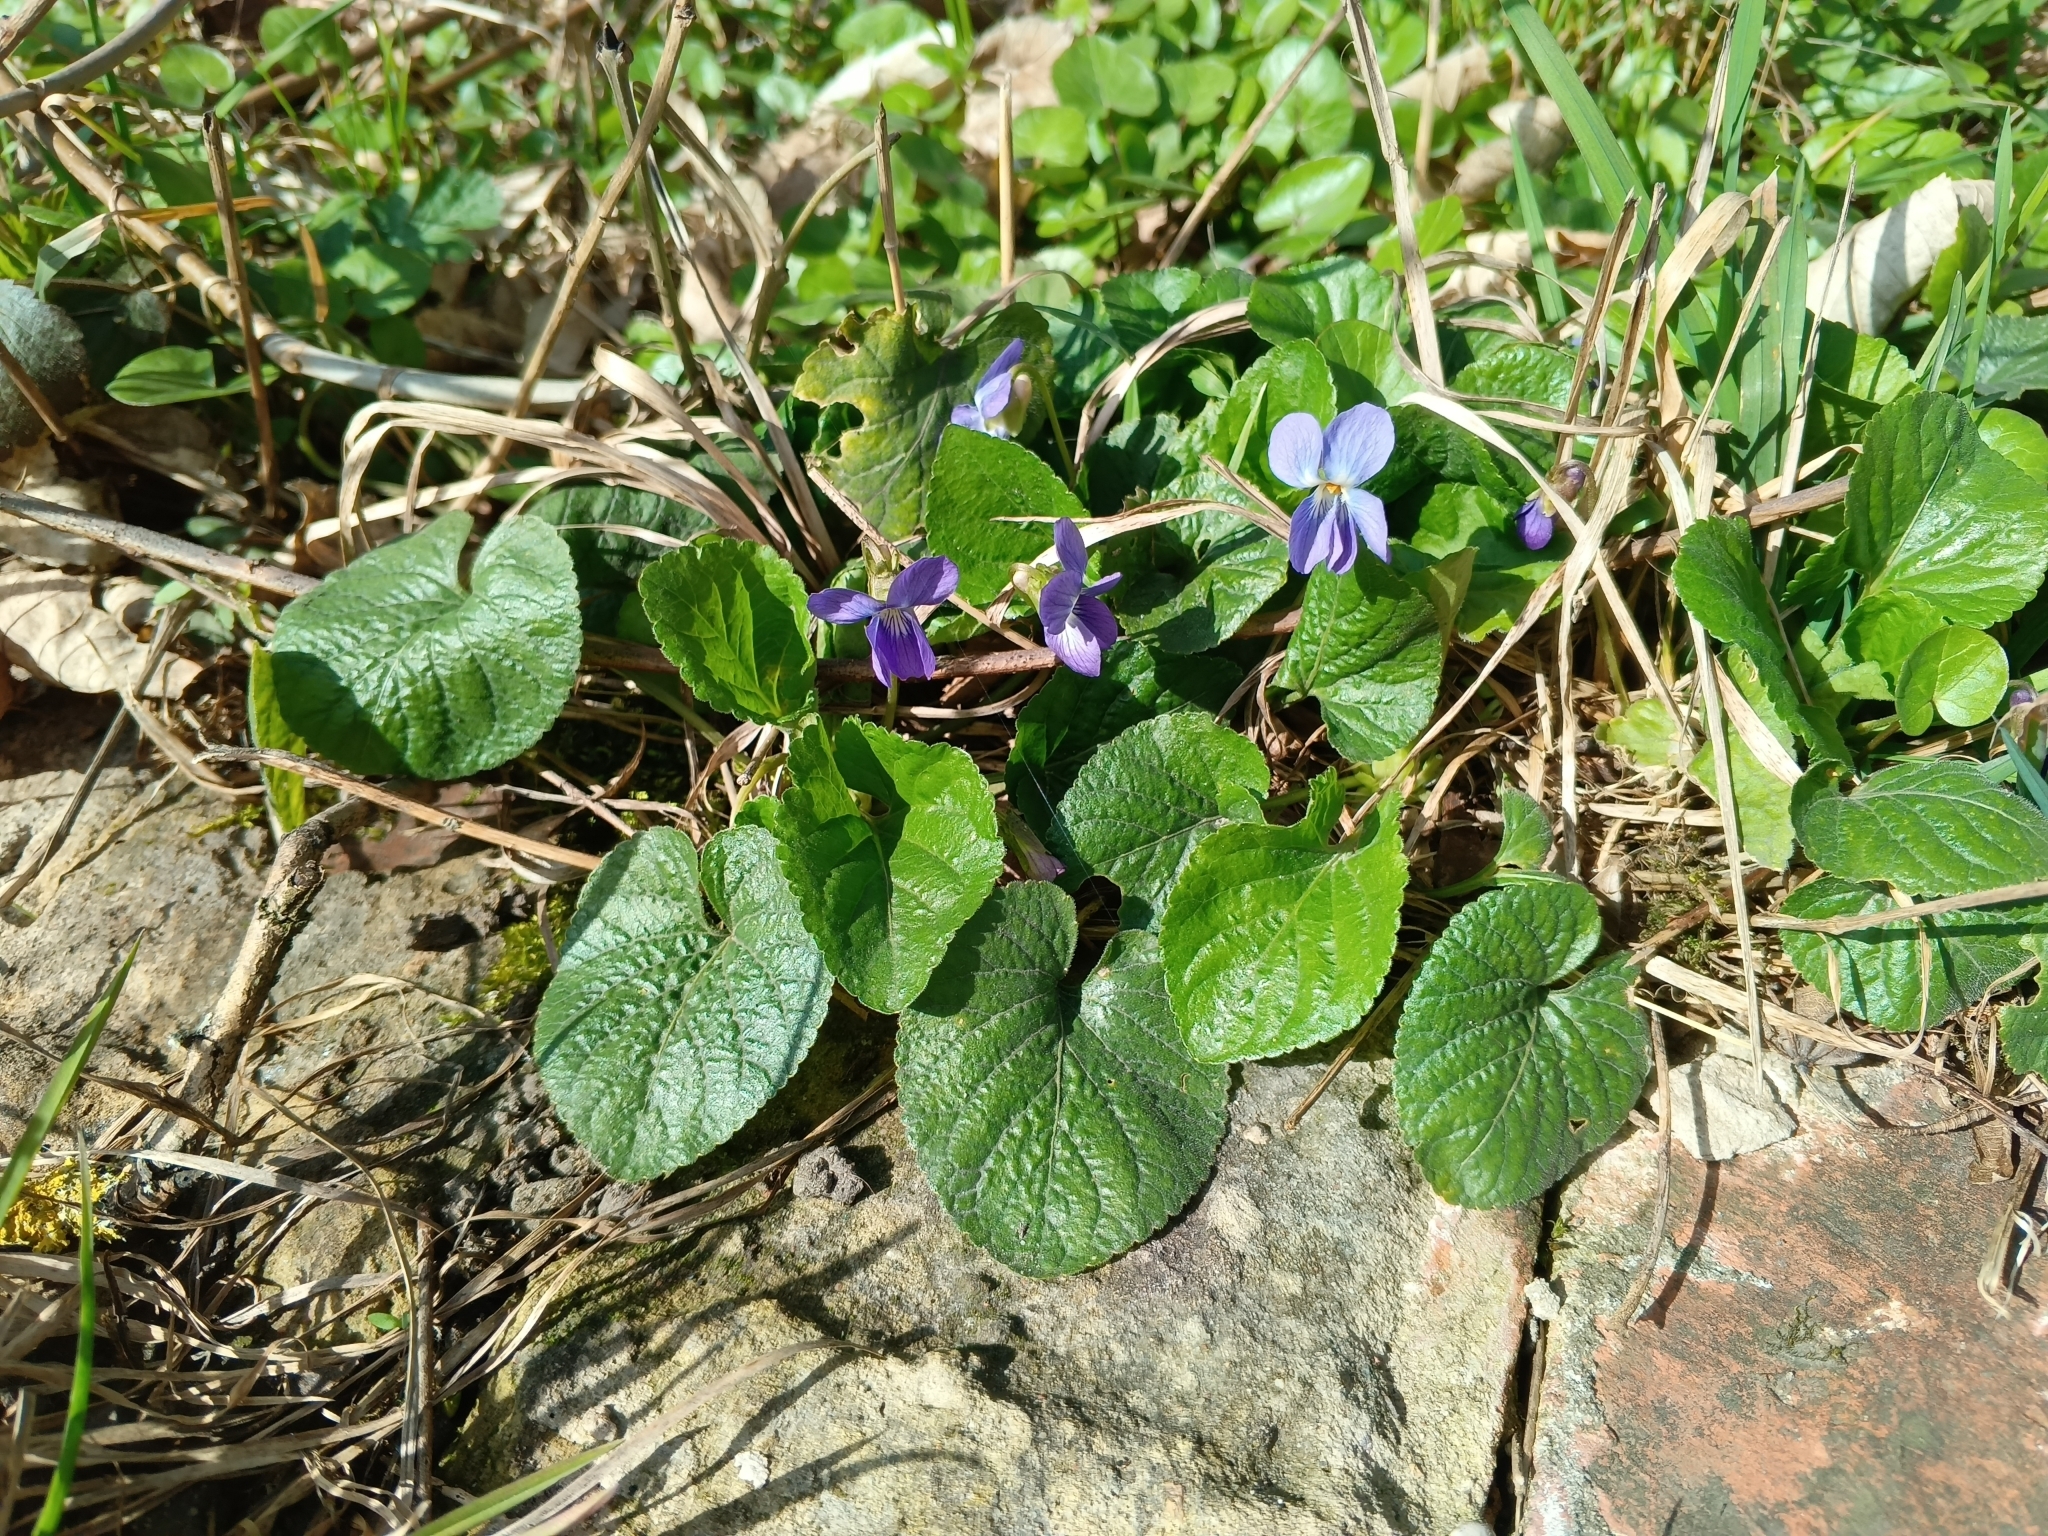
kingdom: Plantae
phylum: Tracheophyta
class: Magnoliopsida
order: Malpighiales
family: Violaceae
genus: Viola
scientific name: Viola odorata
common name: Sweet violet
